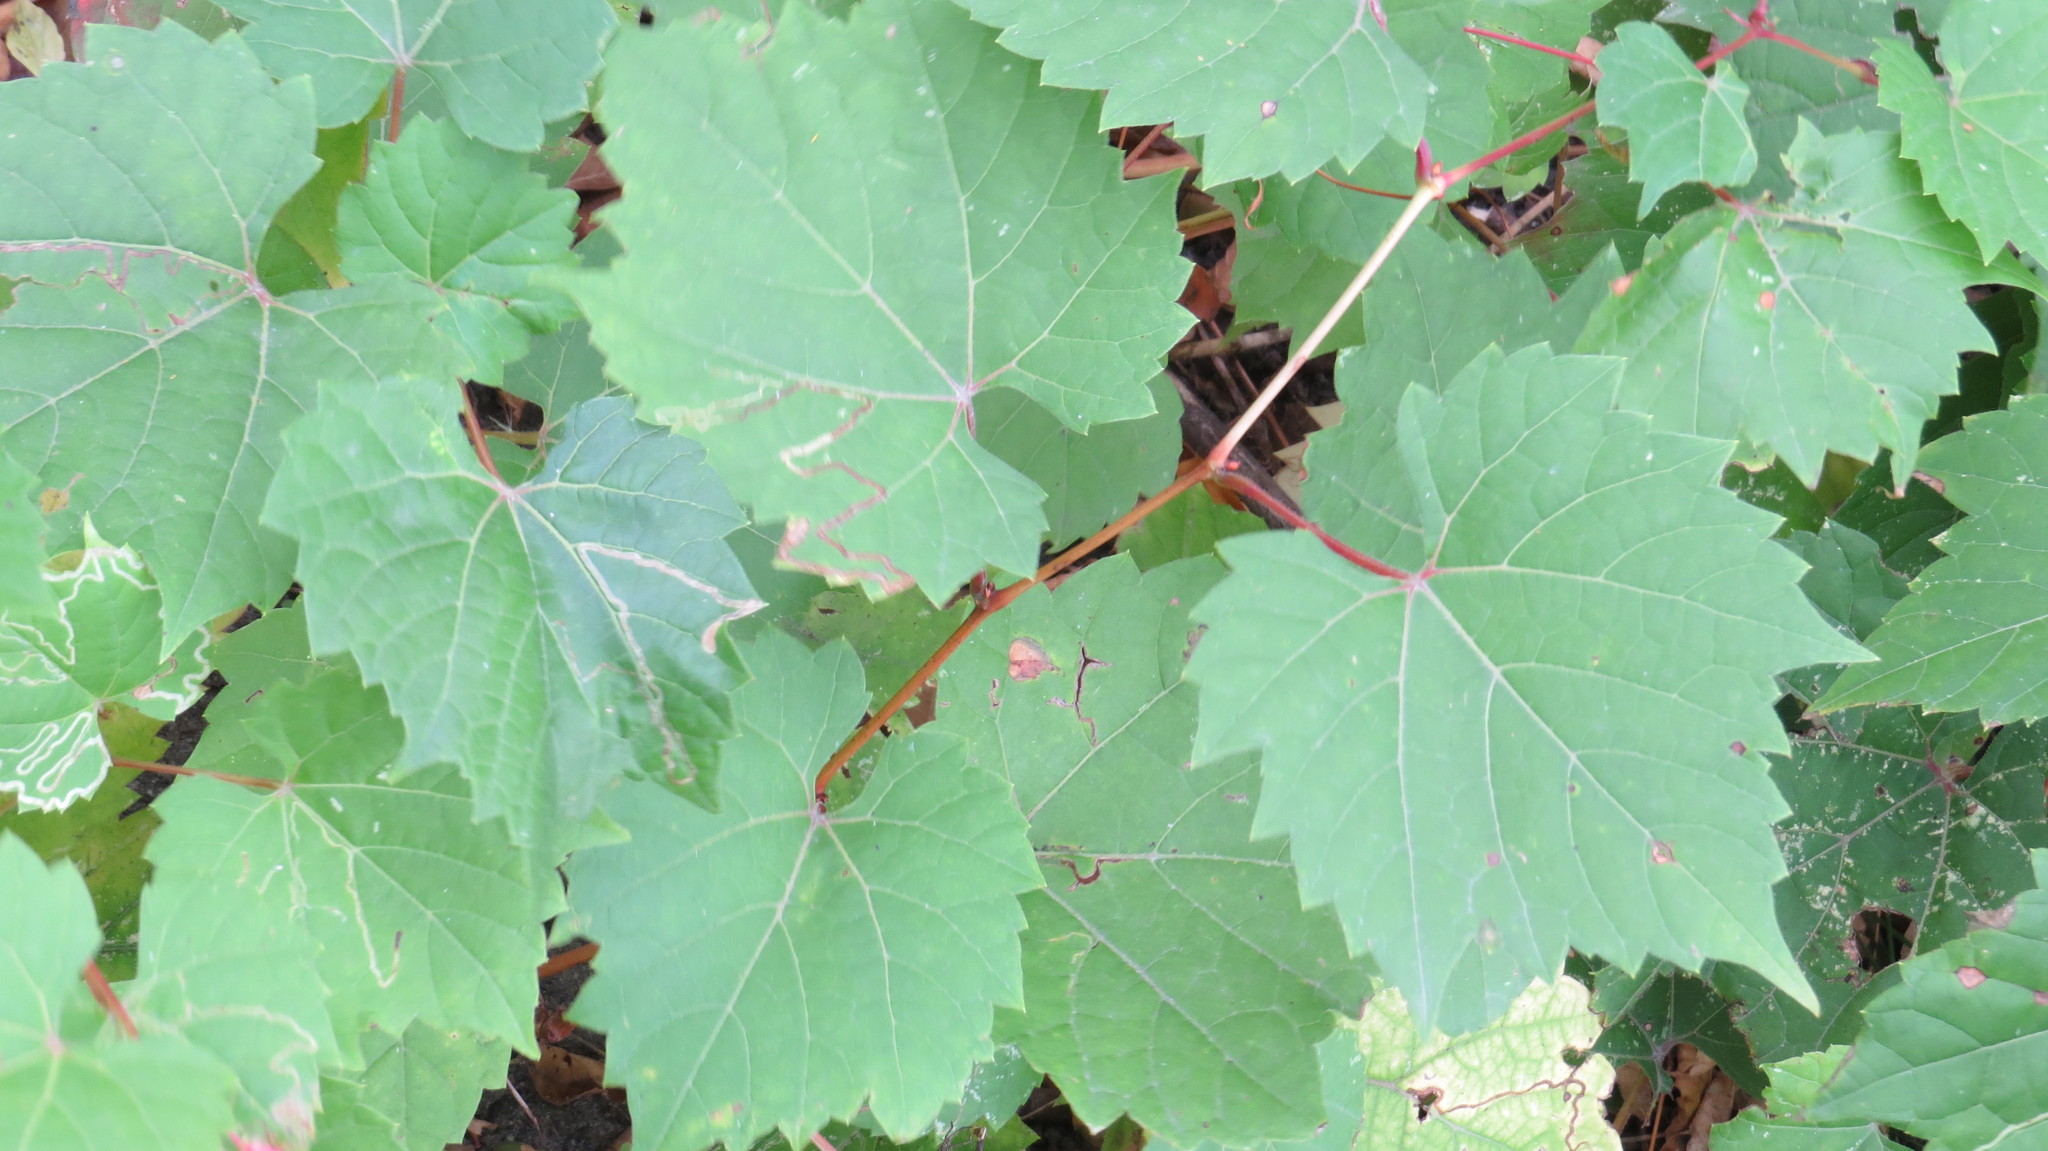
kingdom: Plantae
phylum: Tracheophyta
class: Magnoliopsida
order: Vitales
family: Vitaceae
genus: Vitis
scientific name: Vitis riparia
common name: Frost grape
